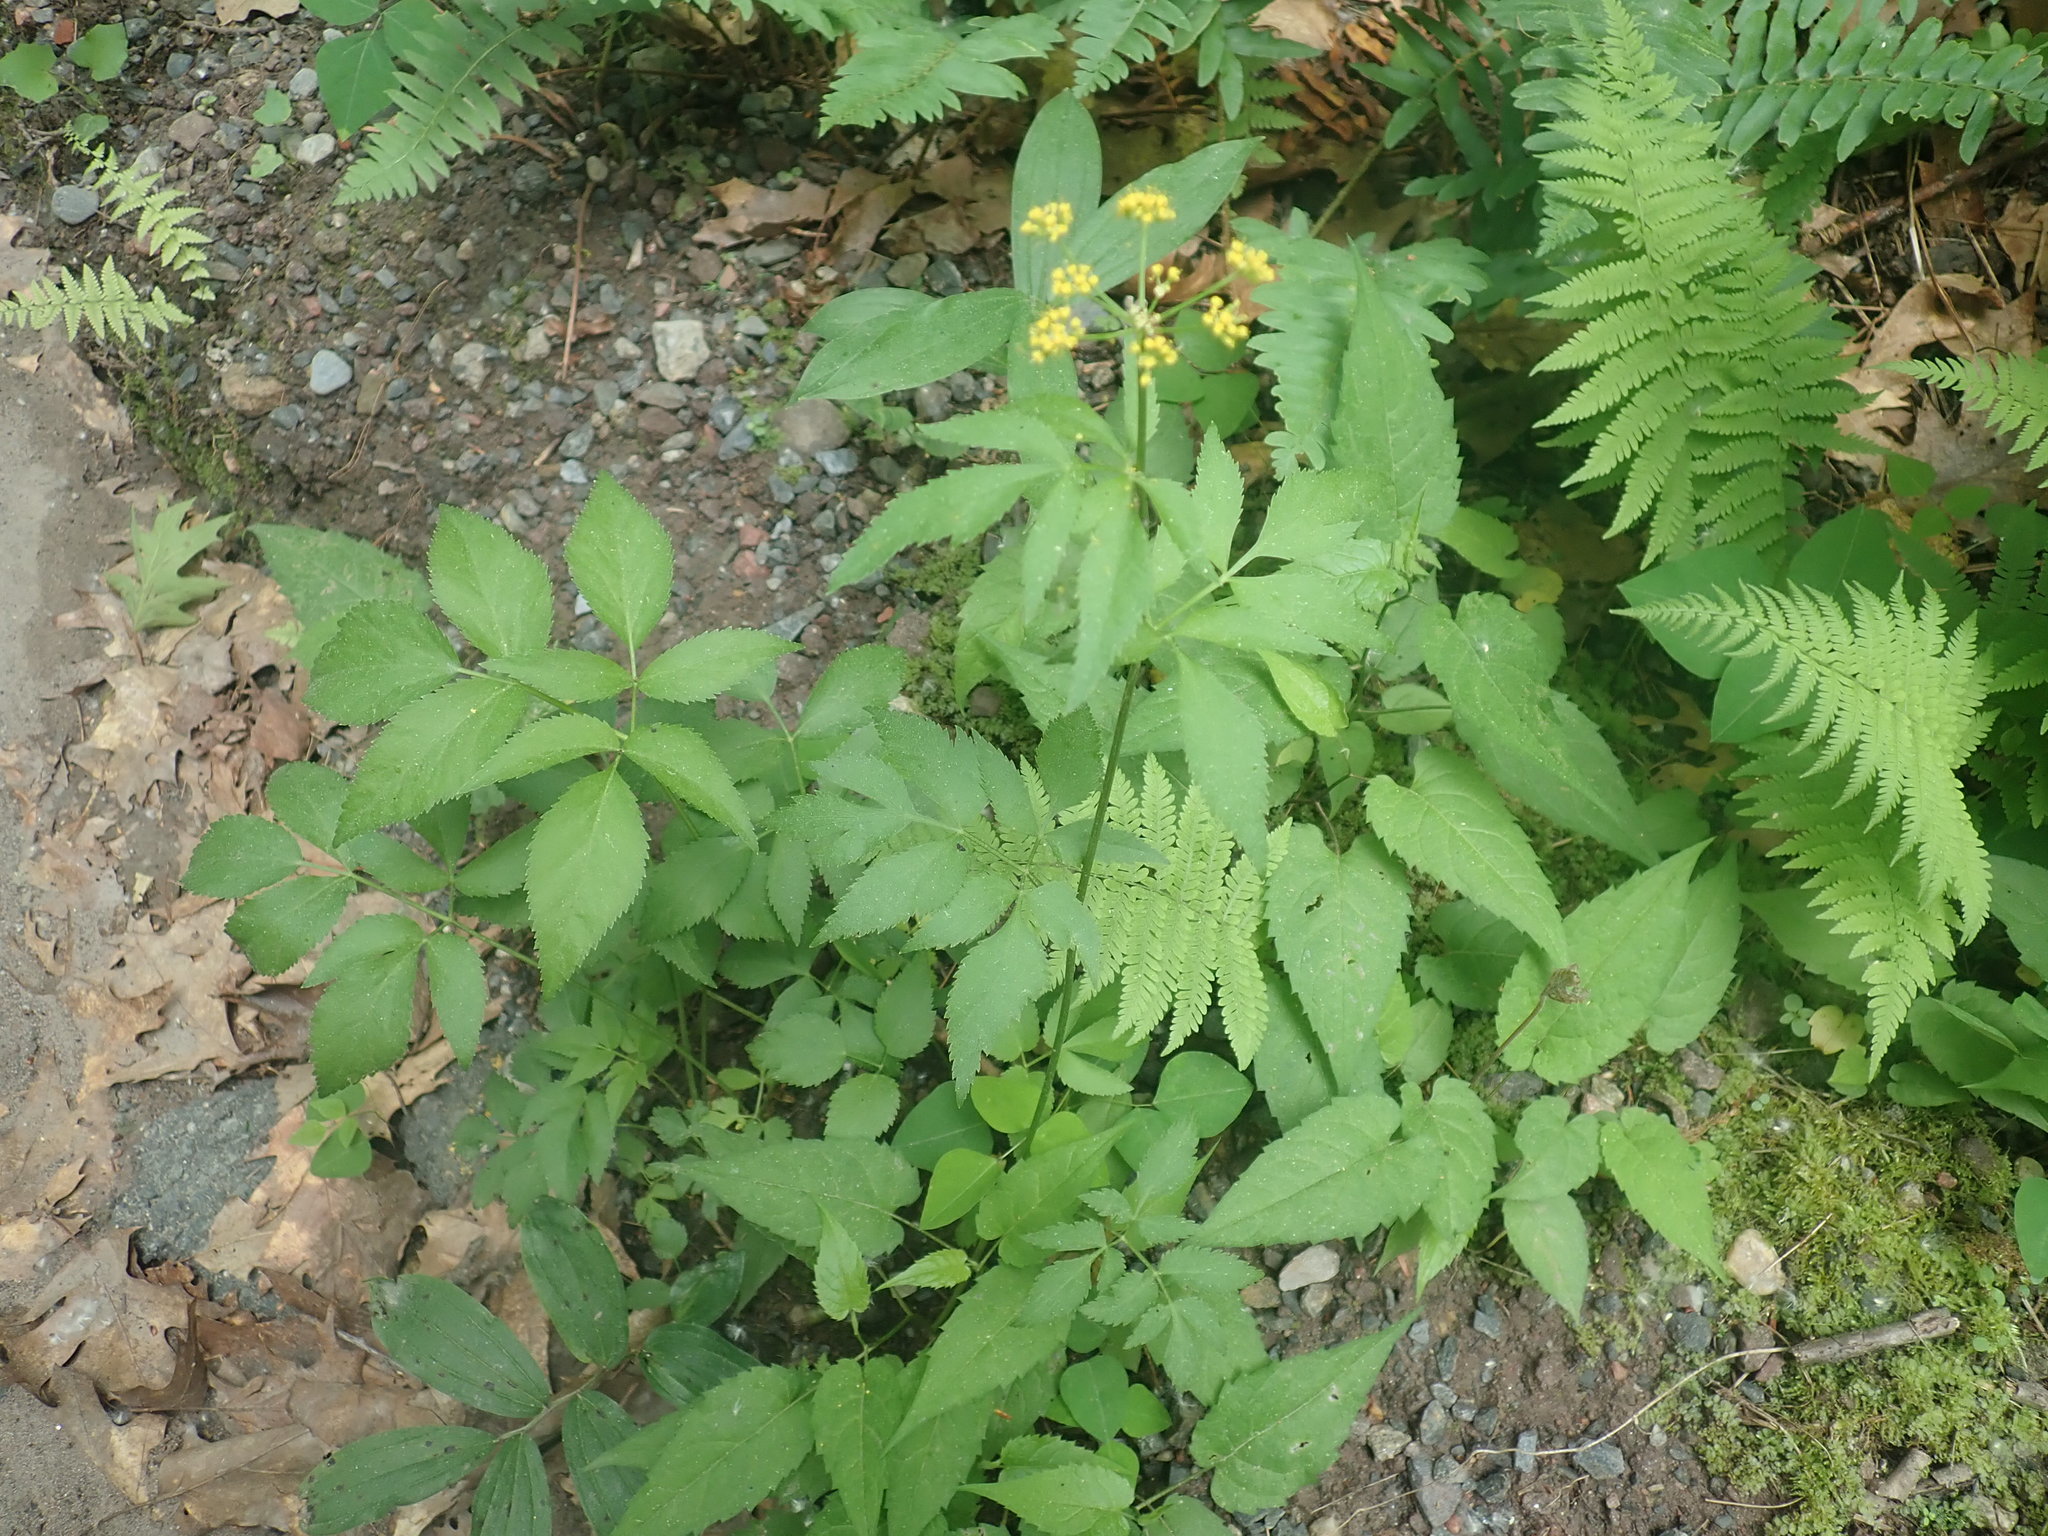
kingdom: Plantae
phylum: Tracheophyta
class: Magnoliopsida
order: Apiales
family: Apiaceae
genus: Zizia
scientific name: Zizia aurea
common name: Golden alexanders
